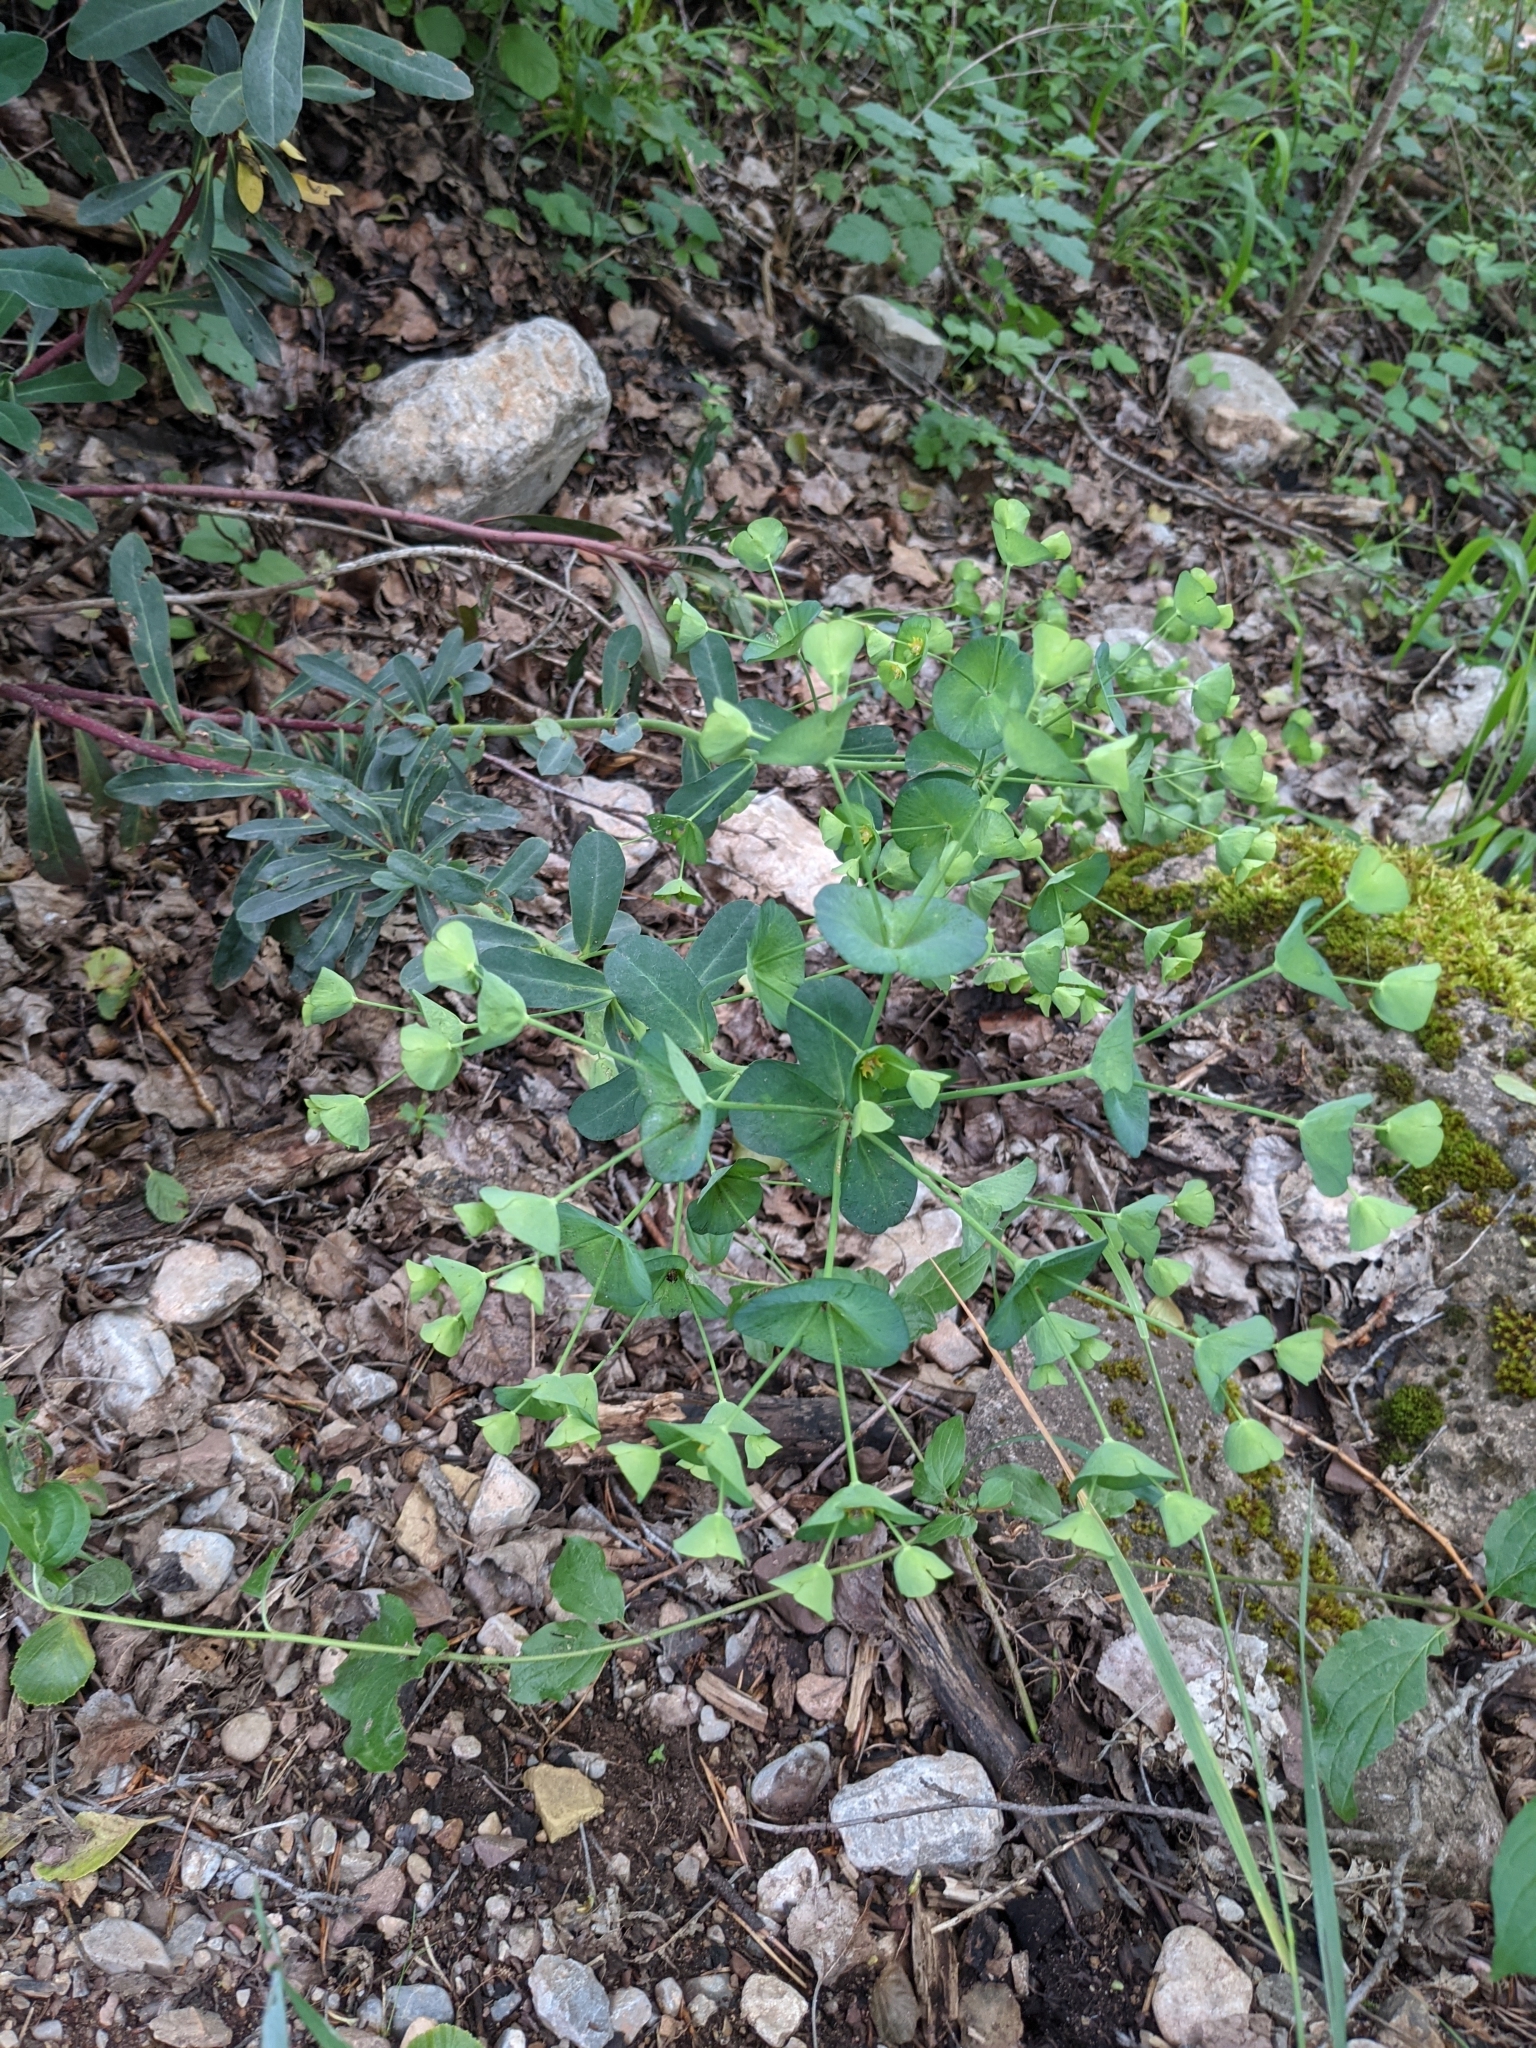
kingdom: Plantae
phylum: Tracheophyta
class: Magnoliopsida
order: Malpighiales
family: Euphorbiaceae
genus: Euphorbia
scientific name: Euphorbia amygdaloides
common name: Wood spurge
